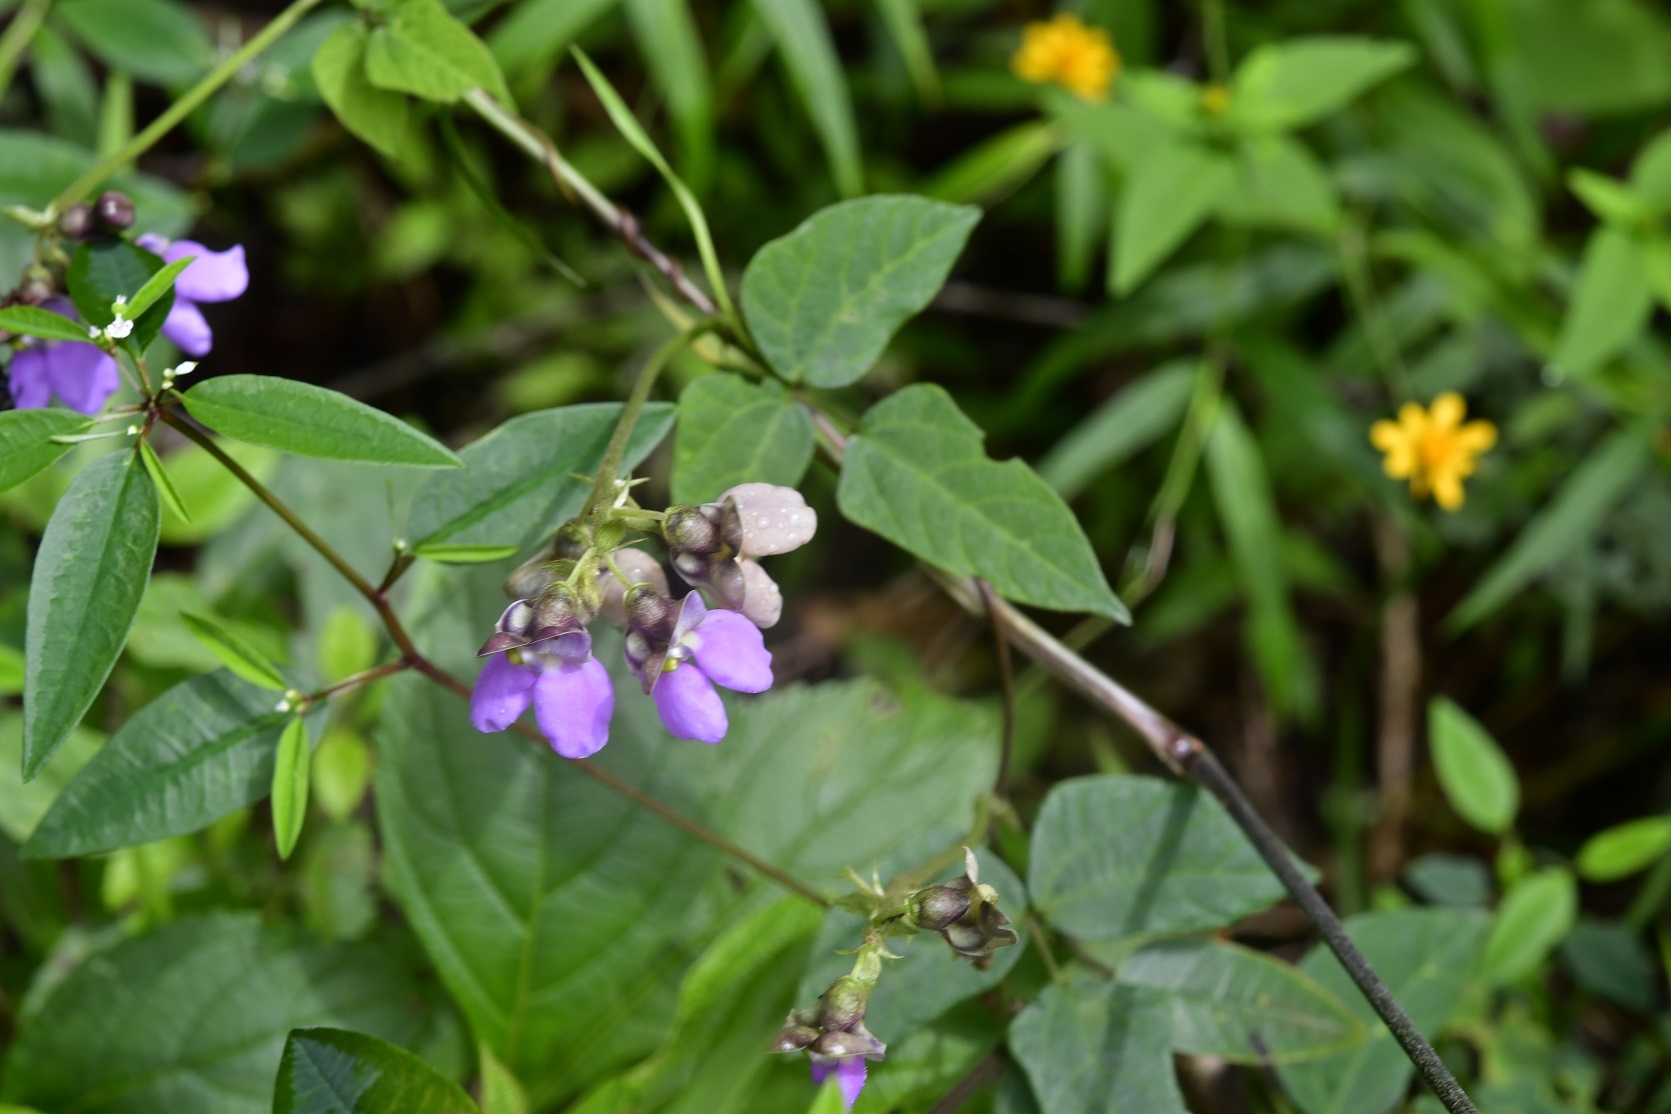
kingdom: Plantae
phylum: Tracheophyta
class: Magnoliopsida
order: Fabales
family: Fabaceae
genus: Phaseolus
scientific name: Phaseolus microcarpus
